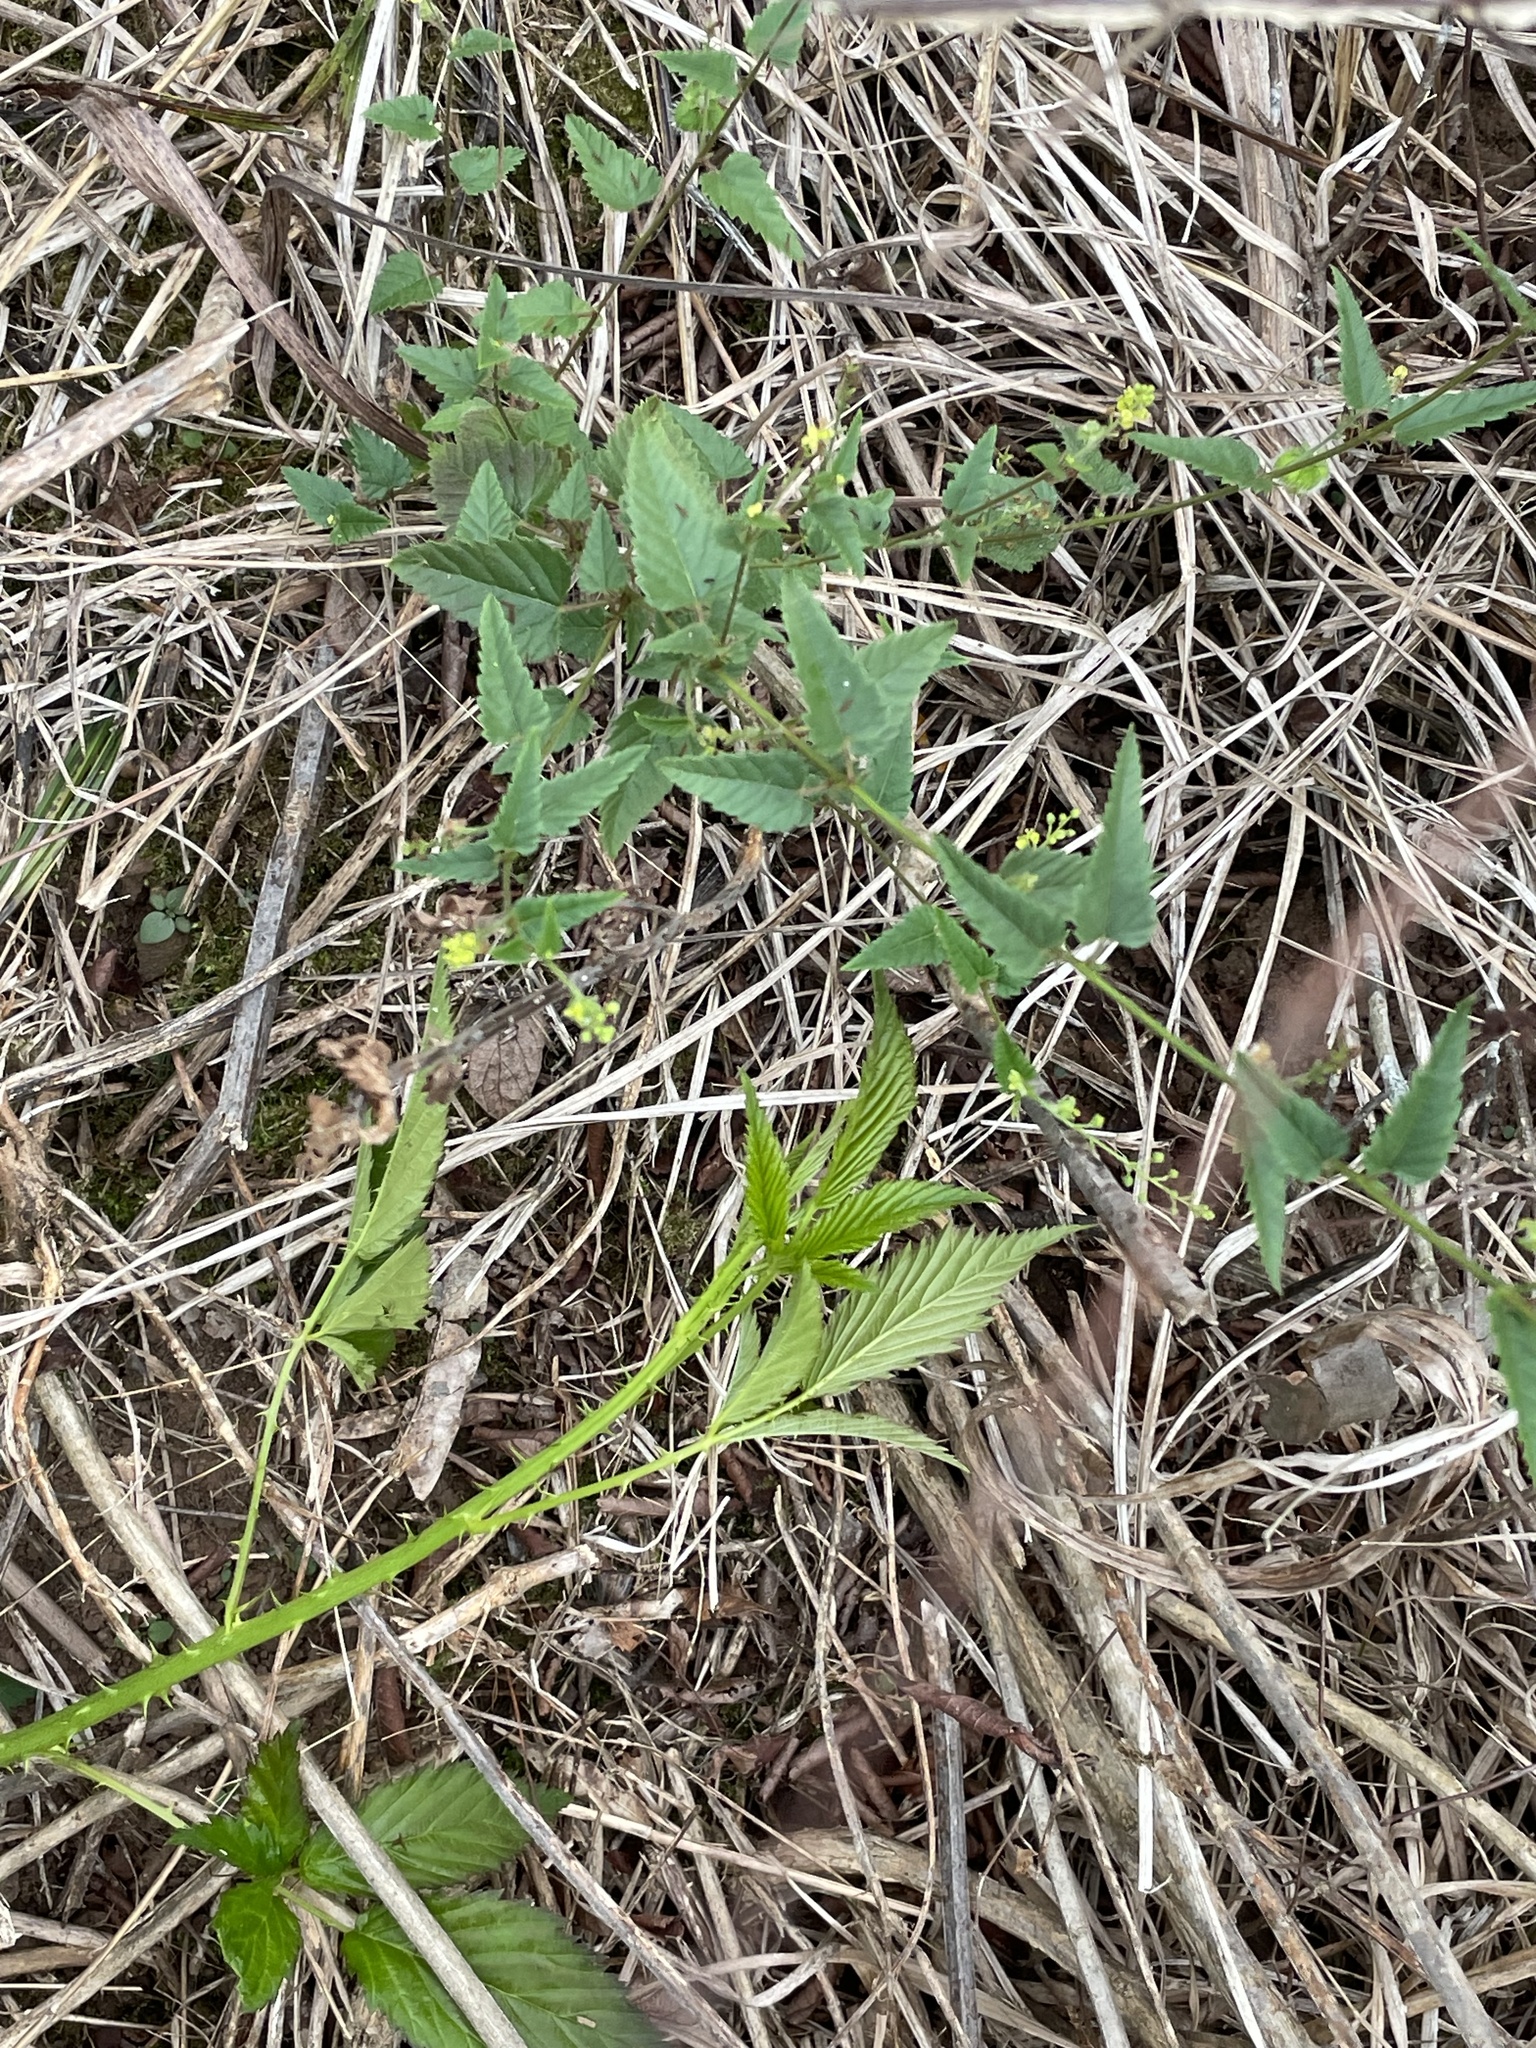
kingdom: Plantae
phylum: Tracheophyta
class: Magnoliopsida
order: Malpighiales
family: Euphorbiaceae
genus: Tragia
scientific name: Tragia urticifolia
